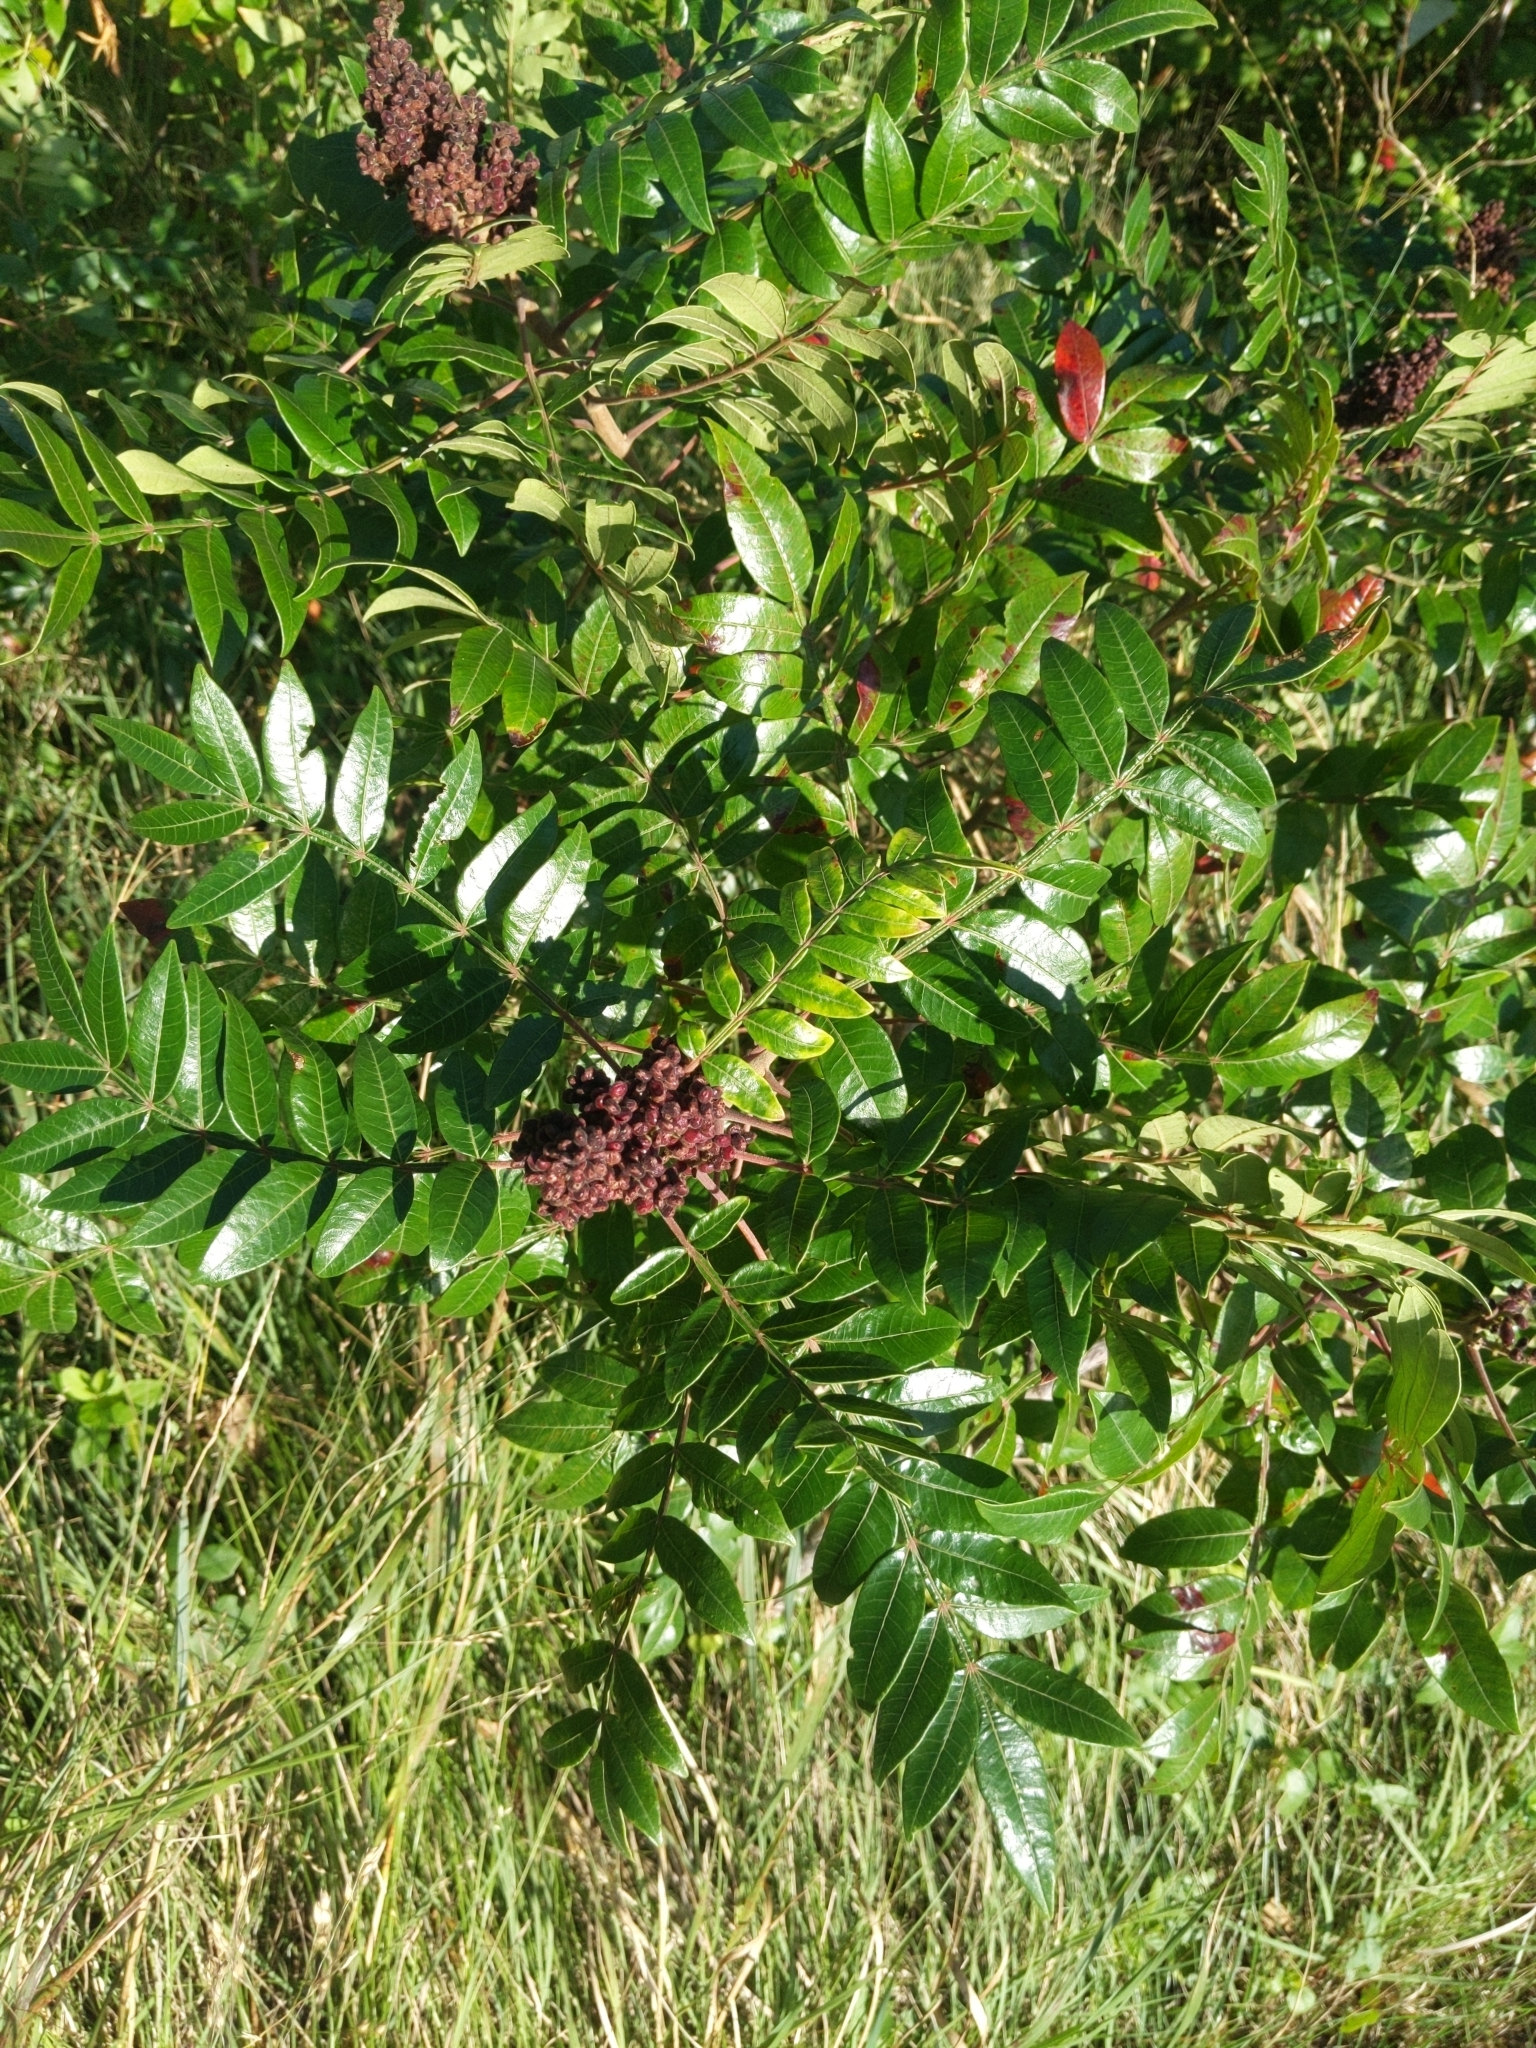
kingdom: Plantae
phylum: Tracheophyta
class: Magnoliopsida
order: Sapindales
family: Anacardiaceae
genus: Rhus
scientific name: Rhus copallina
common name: Shining sumac
